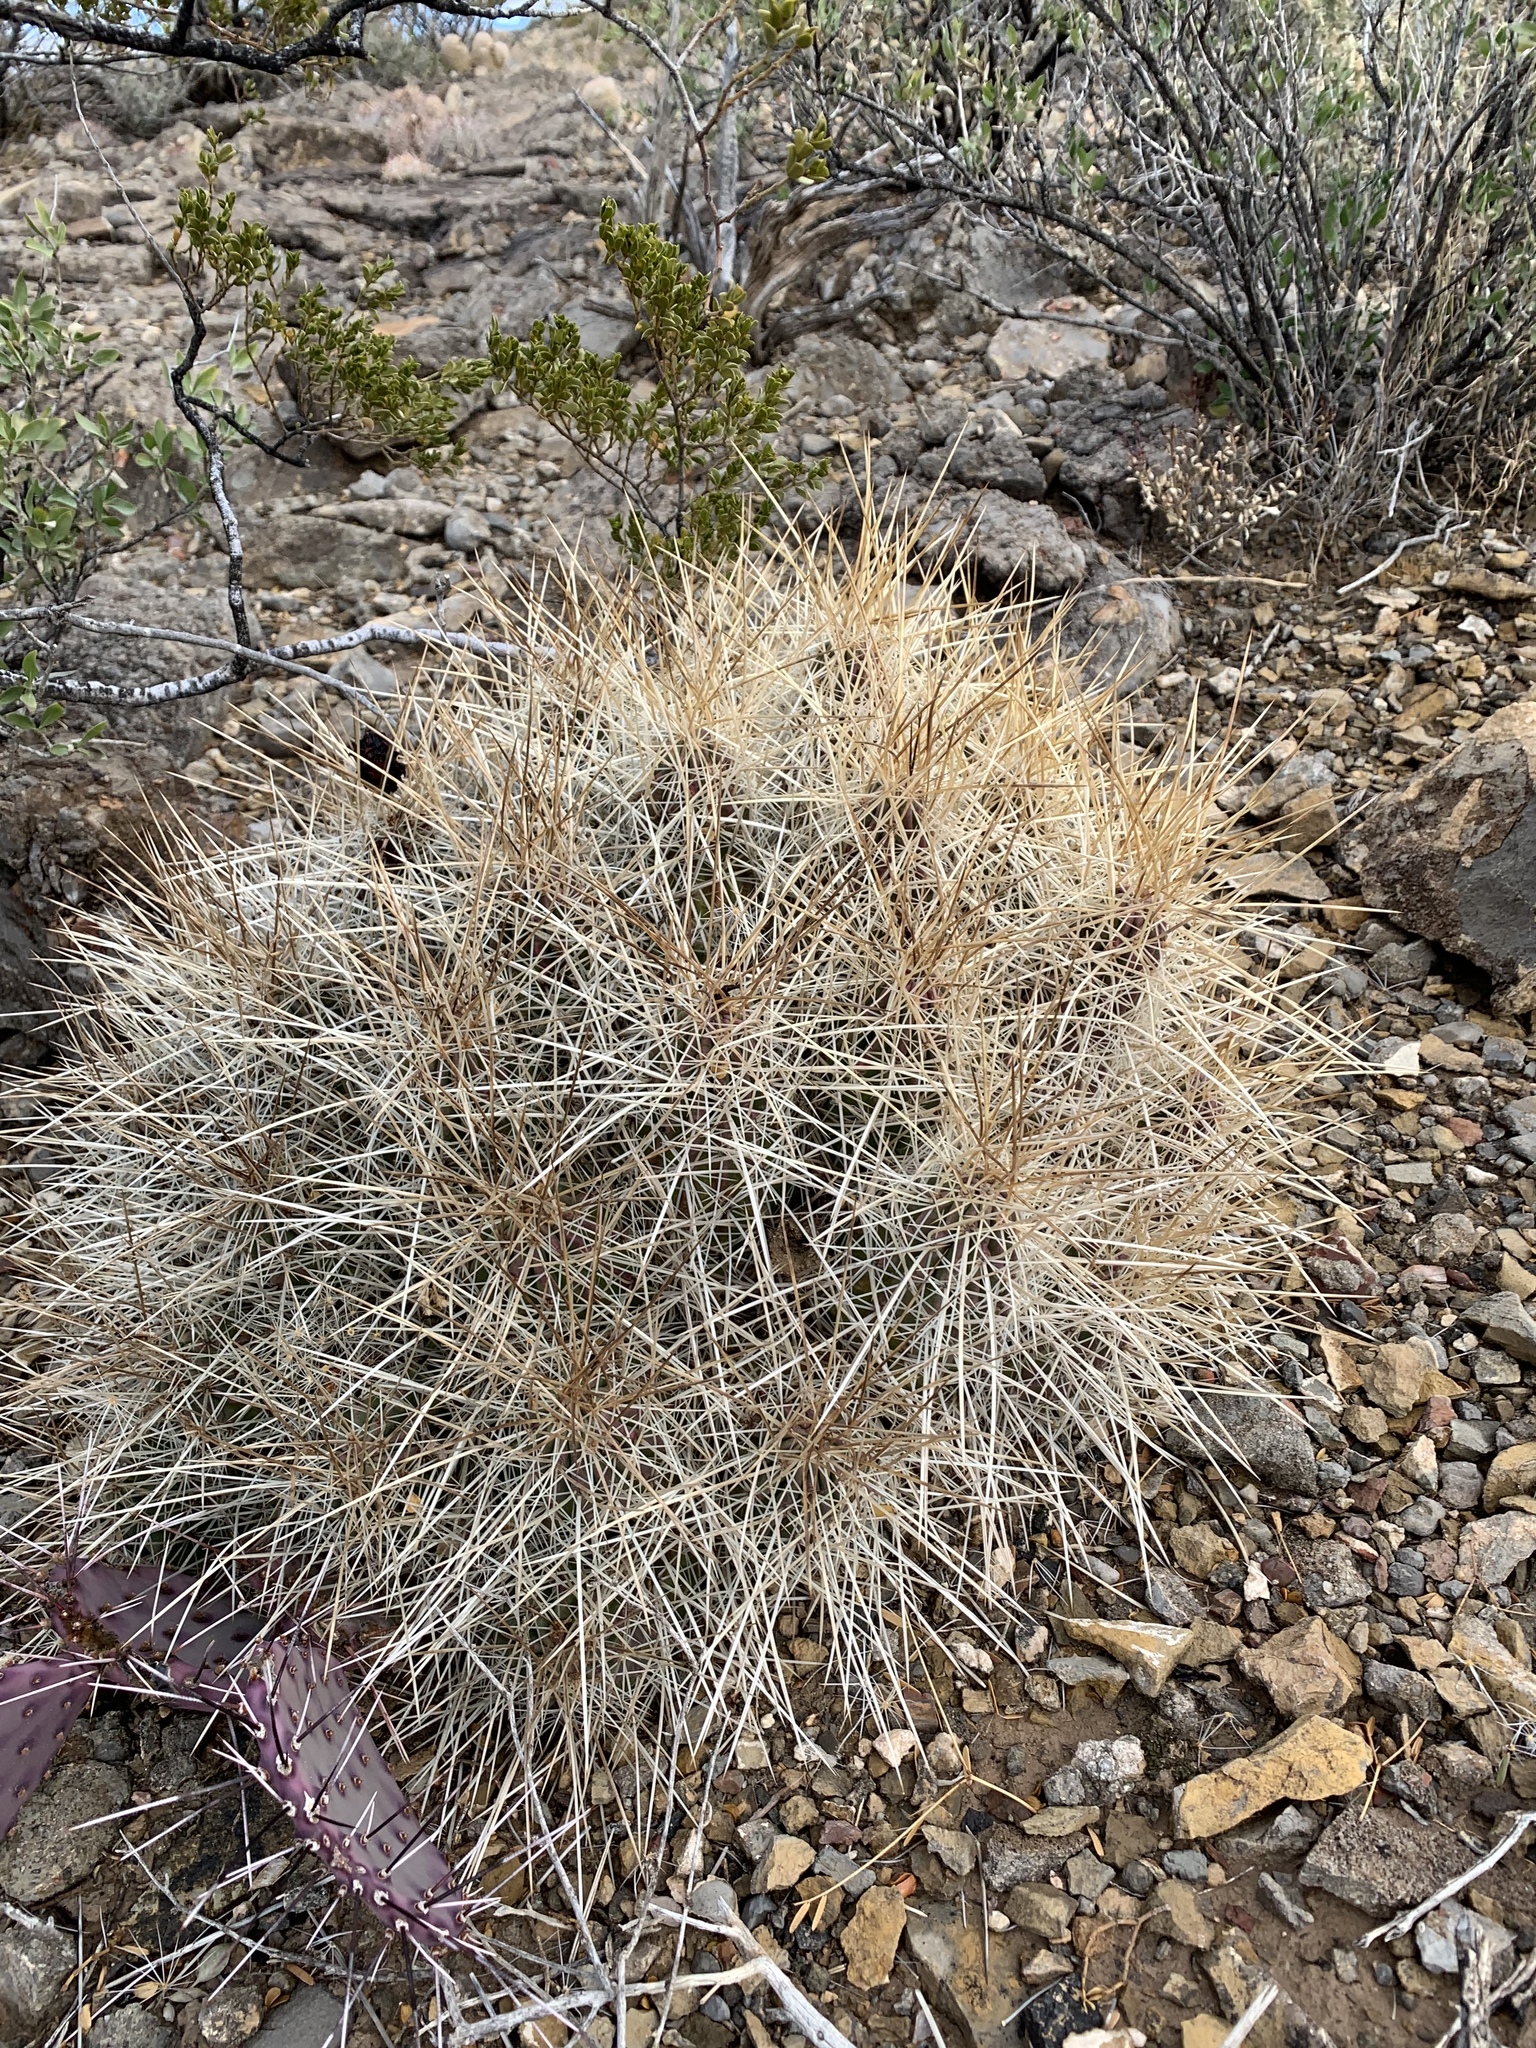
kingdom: Plantae
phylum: Tracheophyta
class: Magnoliopsida
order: Caryophyllales
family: Cactaceae
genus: Echinocereus
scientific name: Echinocereus stramineus
